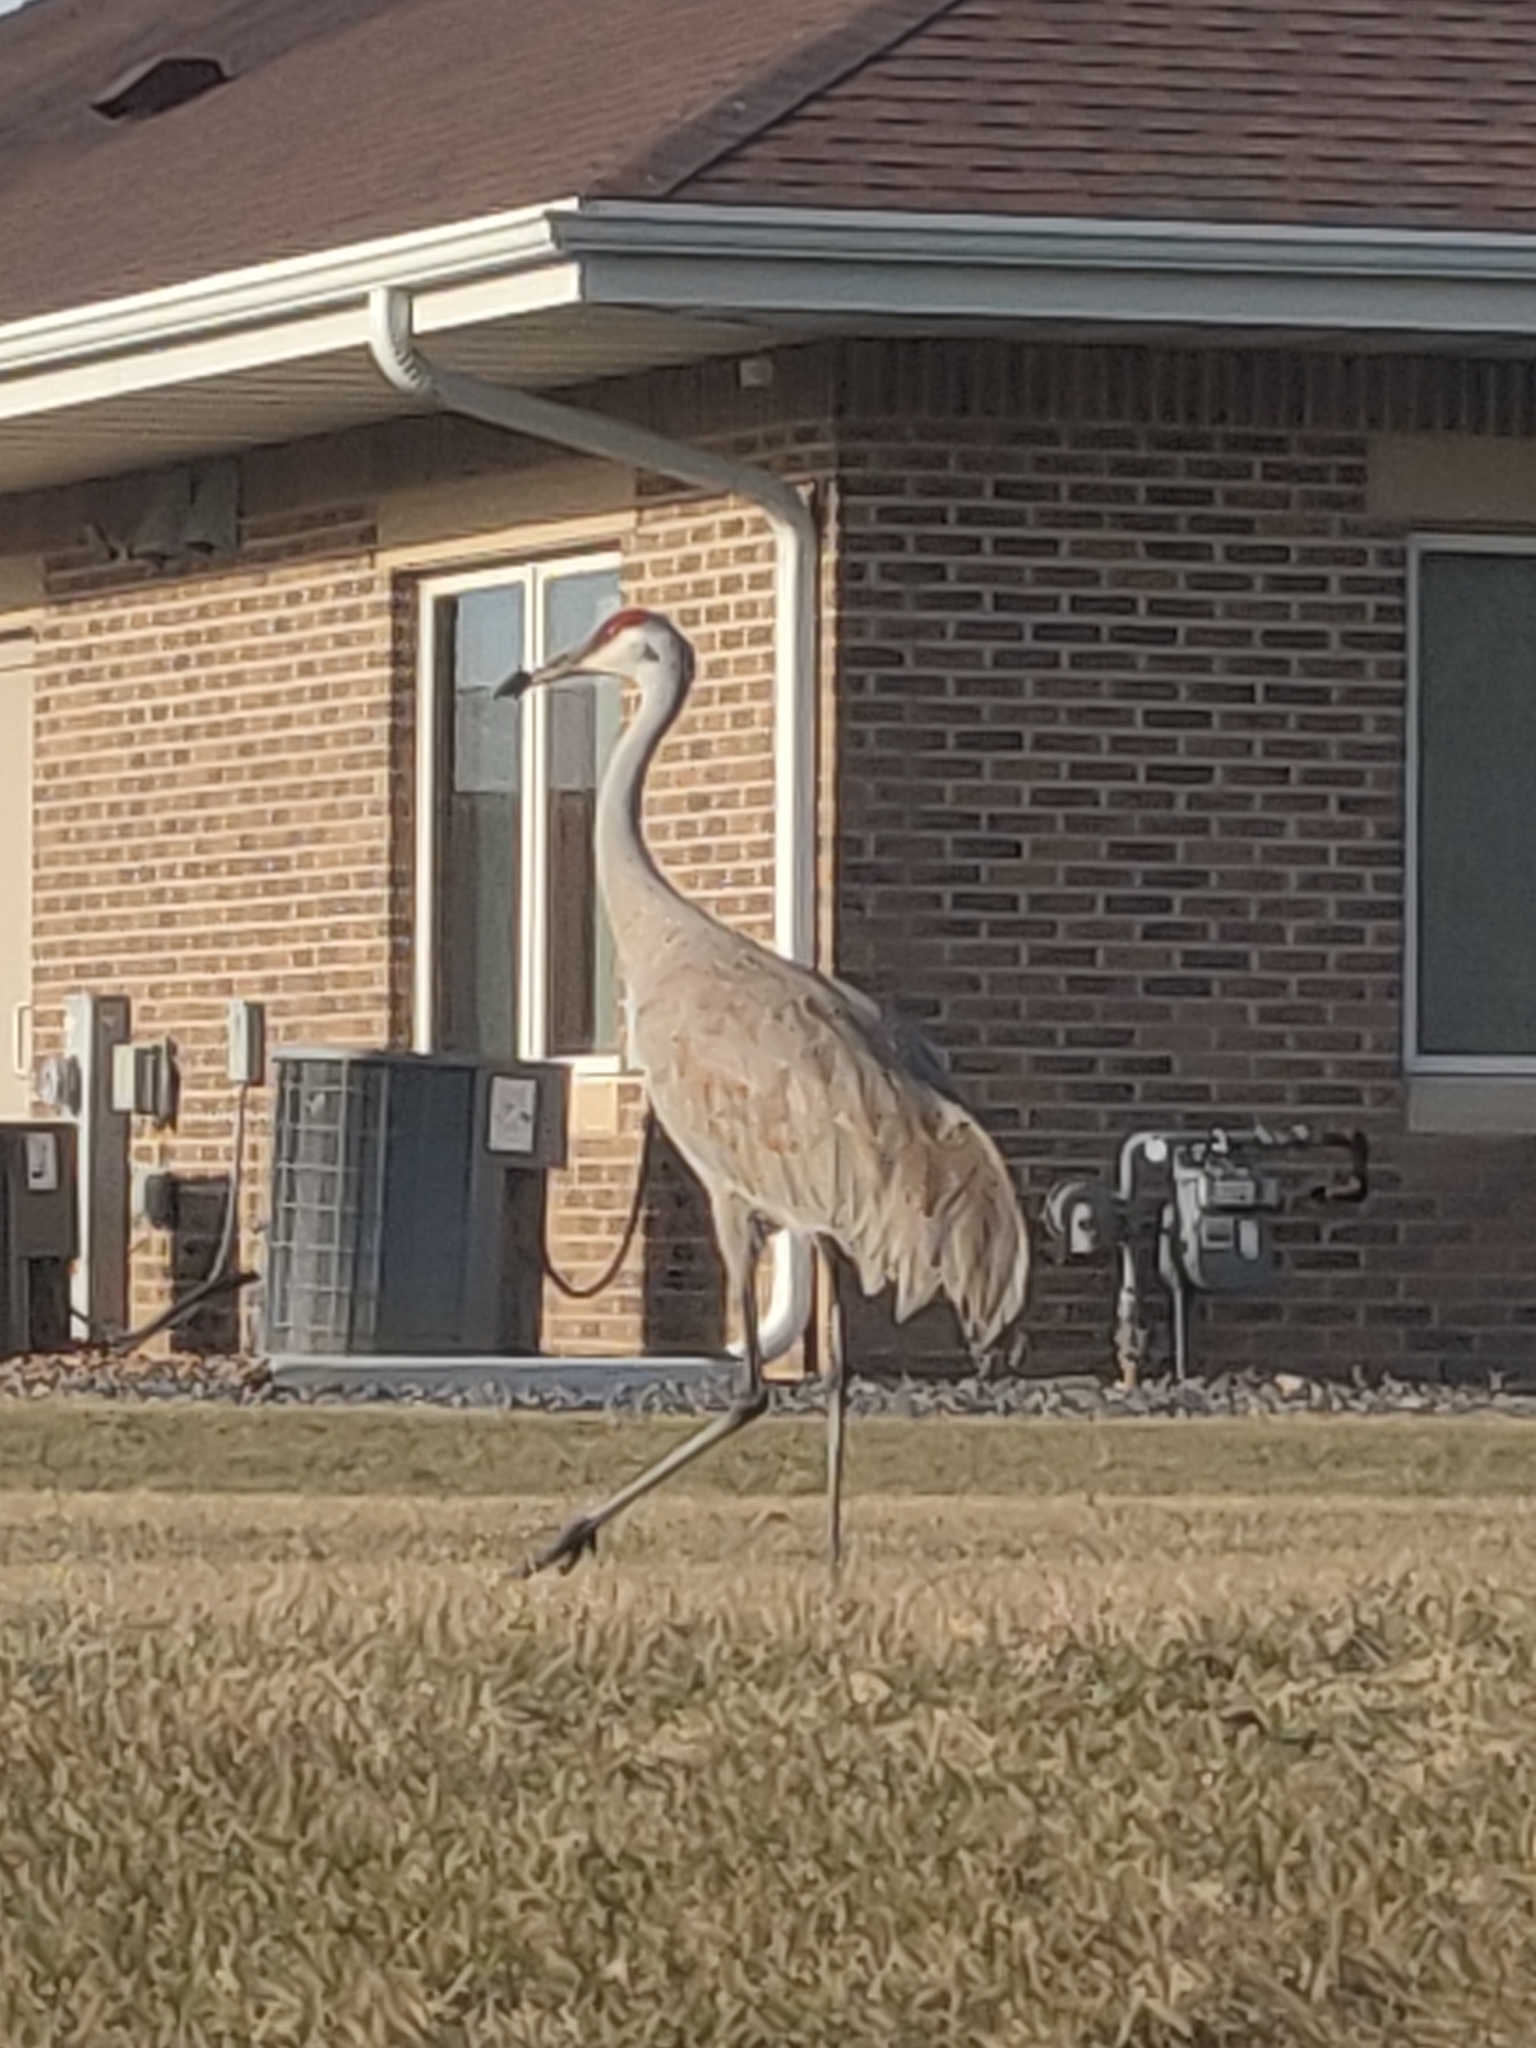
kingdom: Animalia
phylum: Chordata
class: Aves
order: Gruiformes
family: Gruidae
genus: Grus
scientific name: Grus canadensis
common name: Sandhill crane
